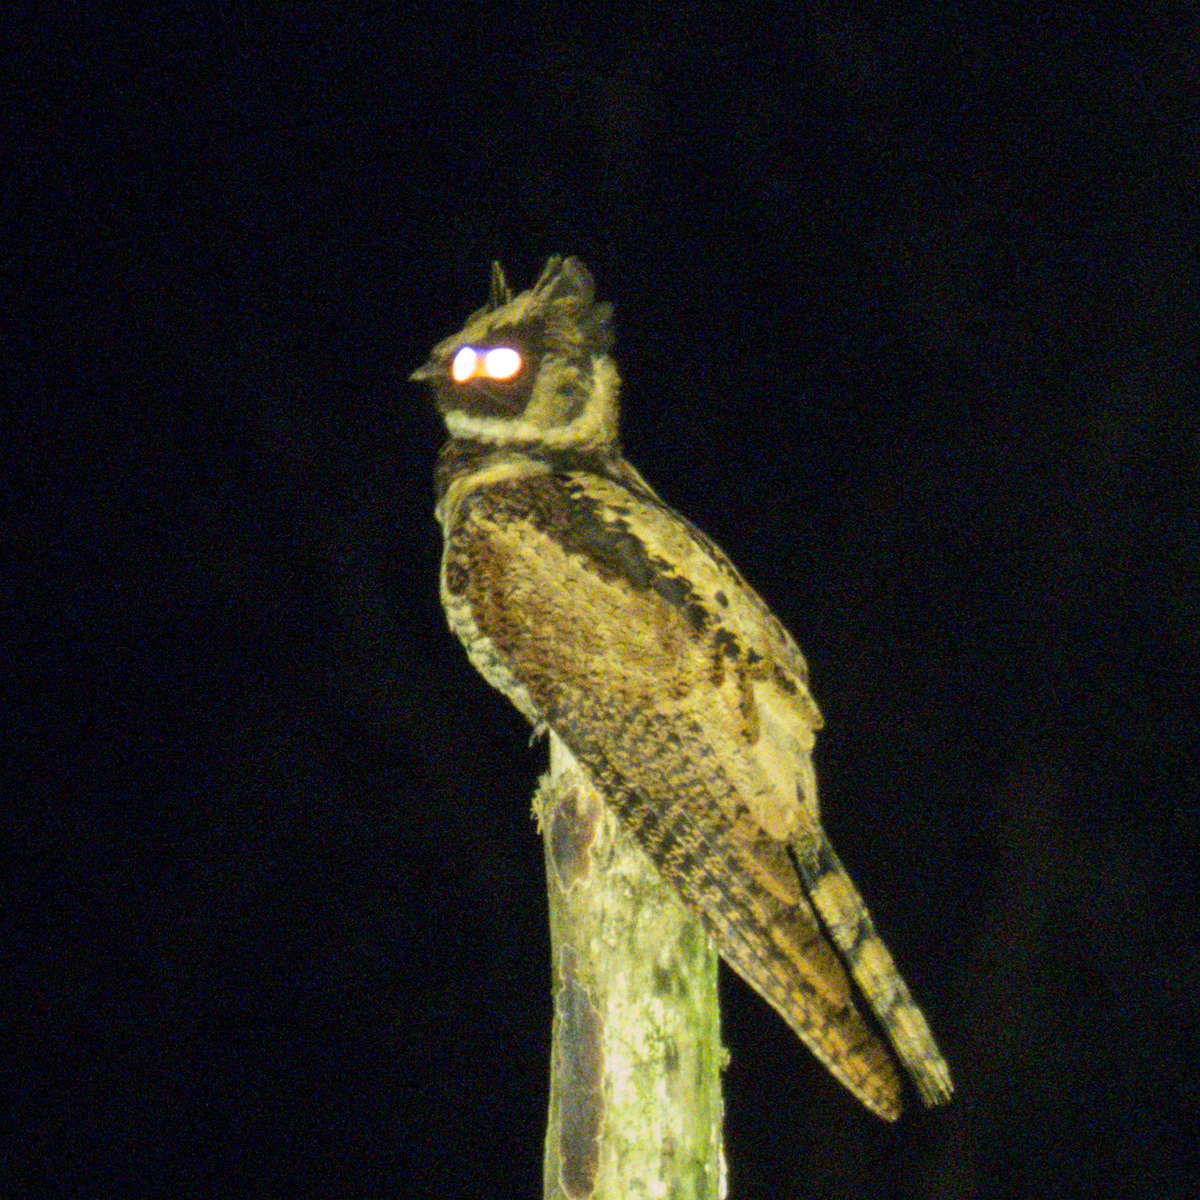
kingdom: Animalia
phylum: Chordata
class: Aves
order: Caprimulgiformes
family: Caprimulgidae
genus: Lyncornis
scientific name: Lyncornis macrotis
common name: Great eared-nightjar
